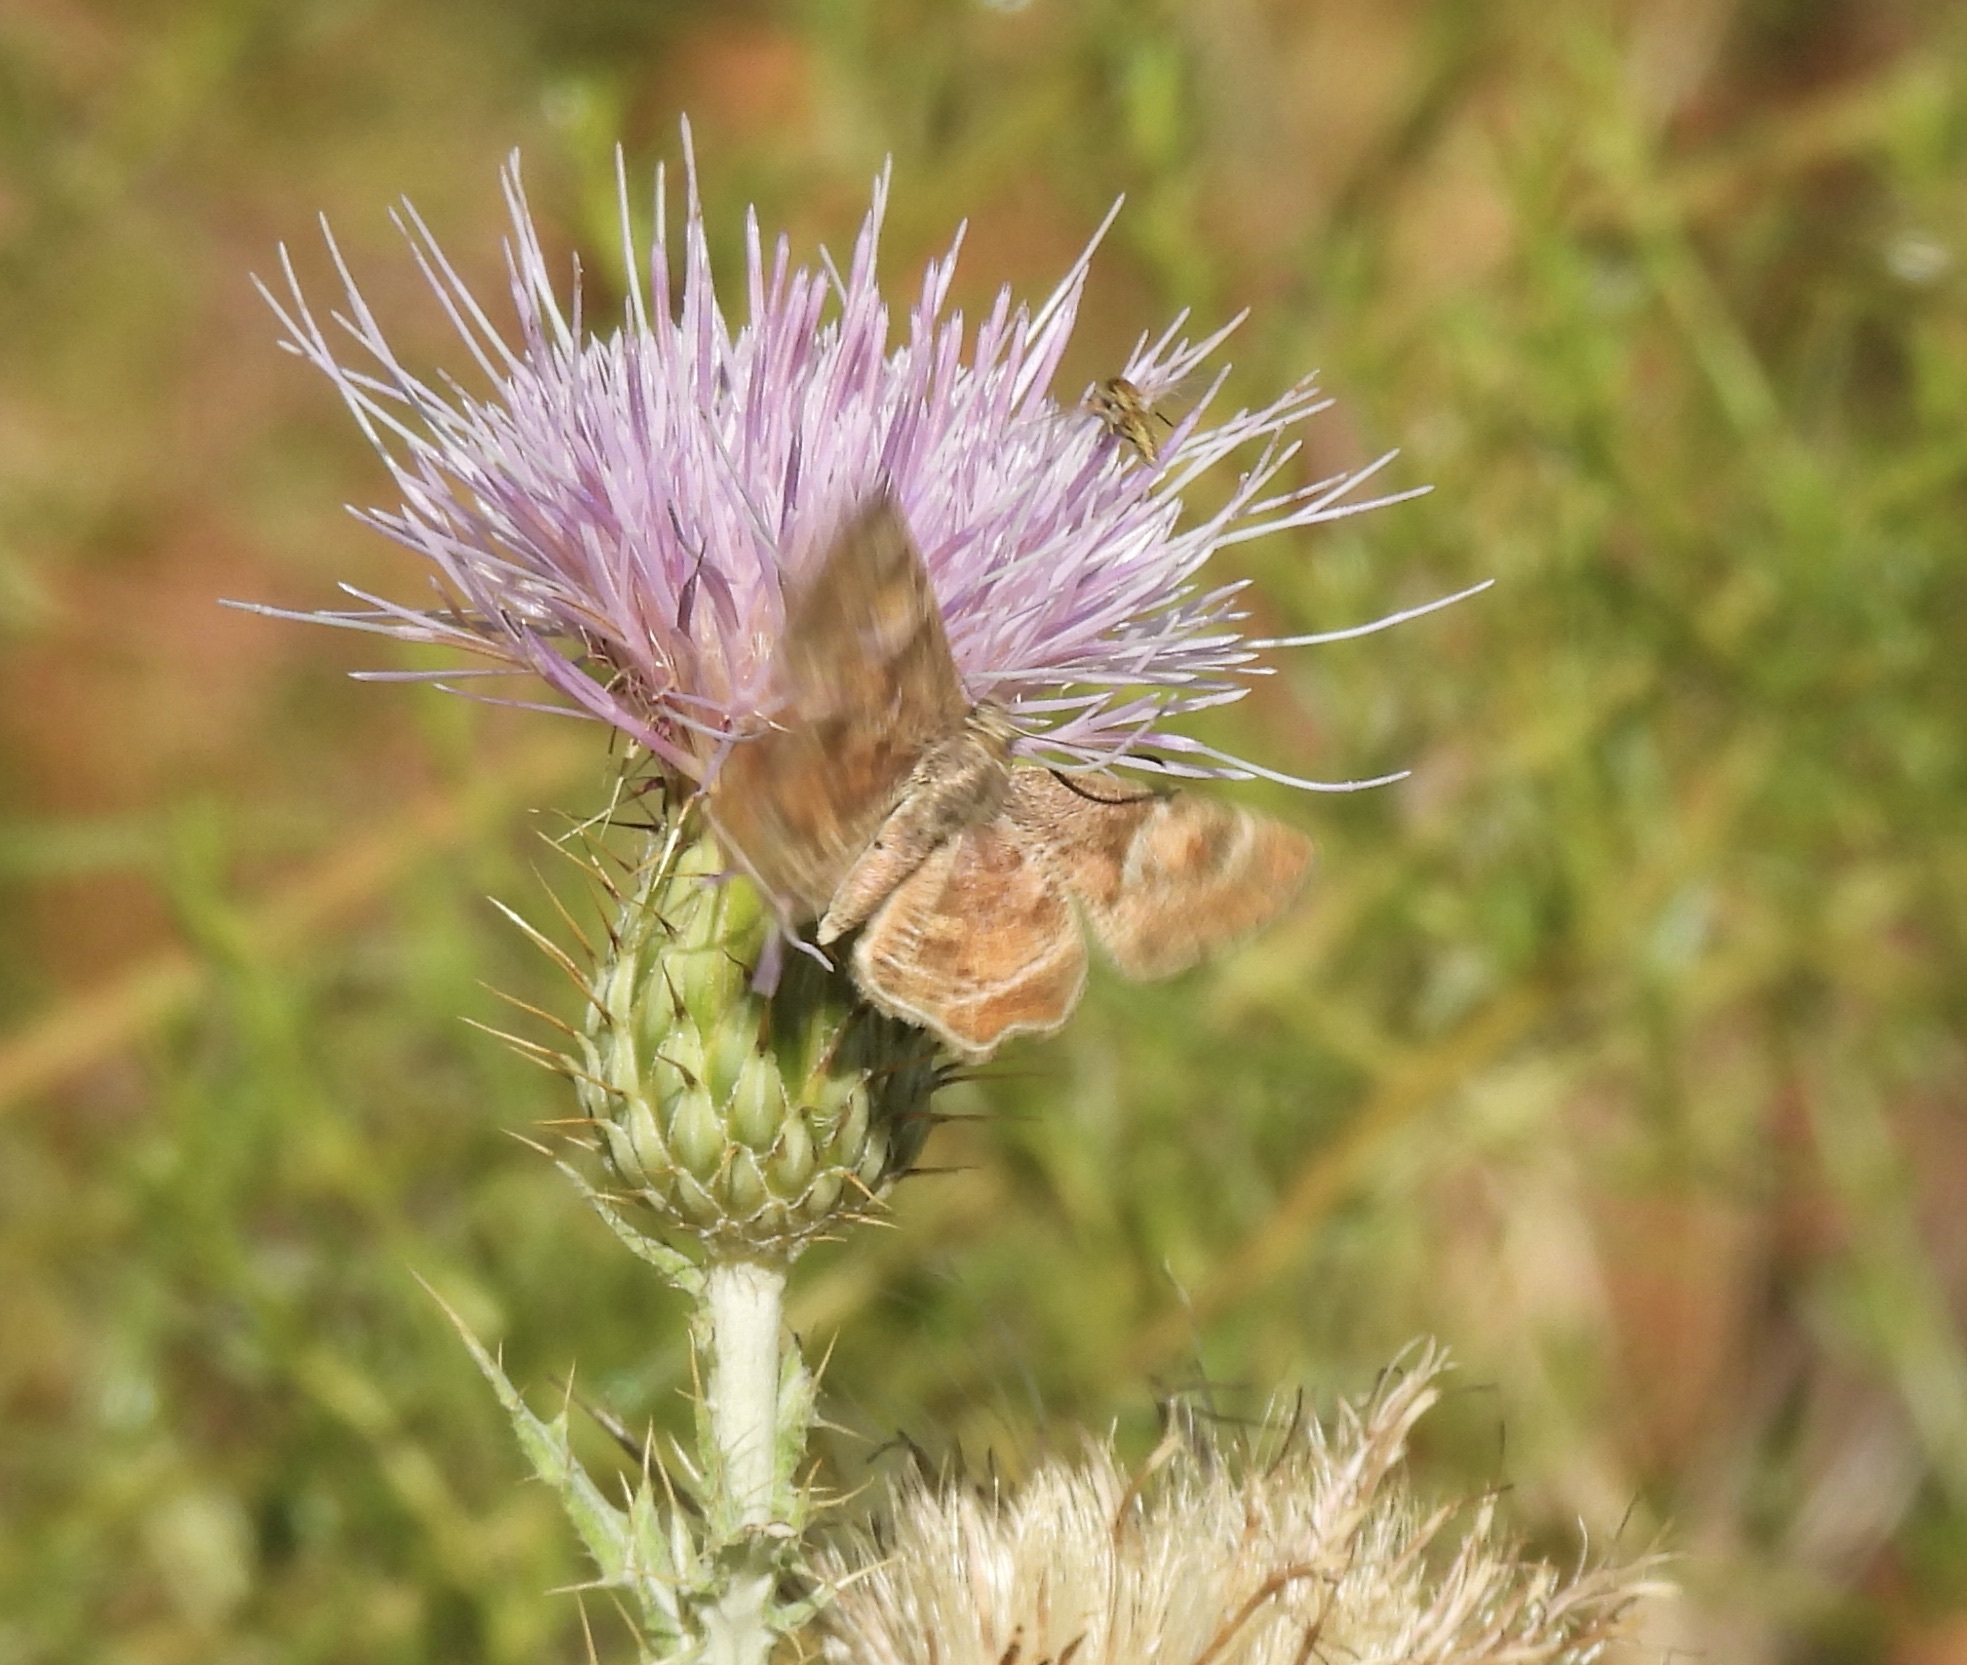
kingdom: Animalia
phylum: Arthropoda
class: Insecta
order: Lepidoptera
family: Hesperiidae
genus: Systasea
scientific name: Systasea pulverulenta
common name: Texas powdered skipper
